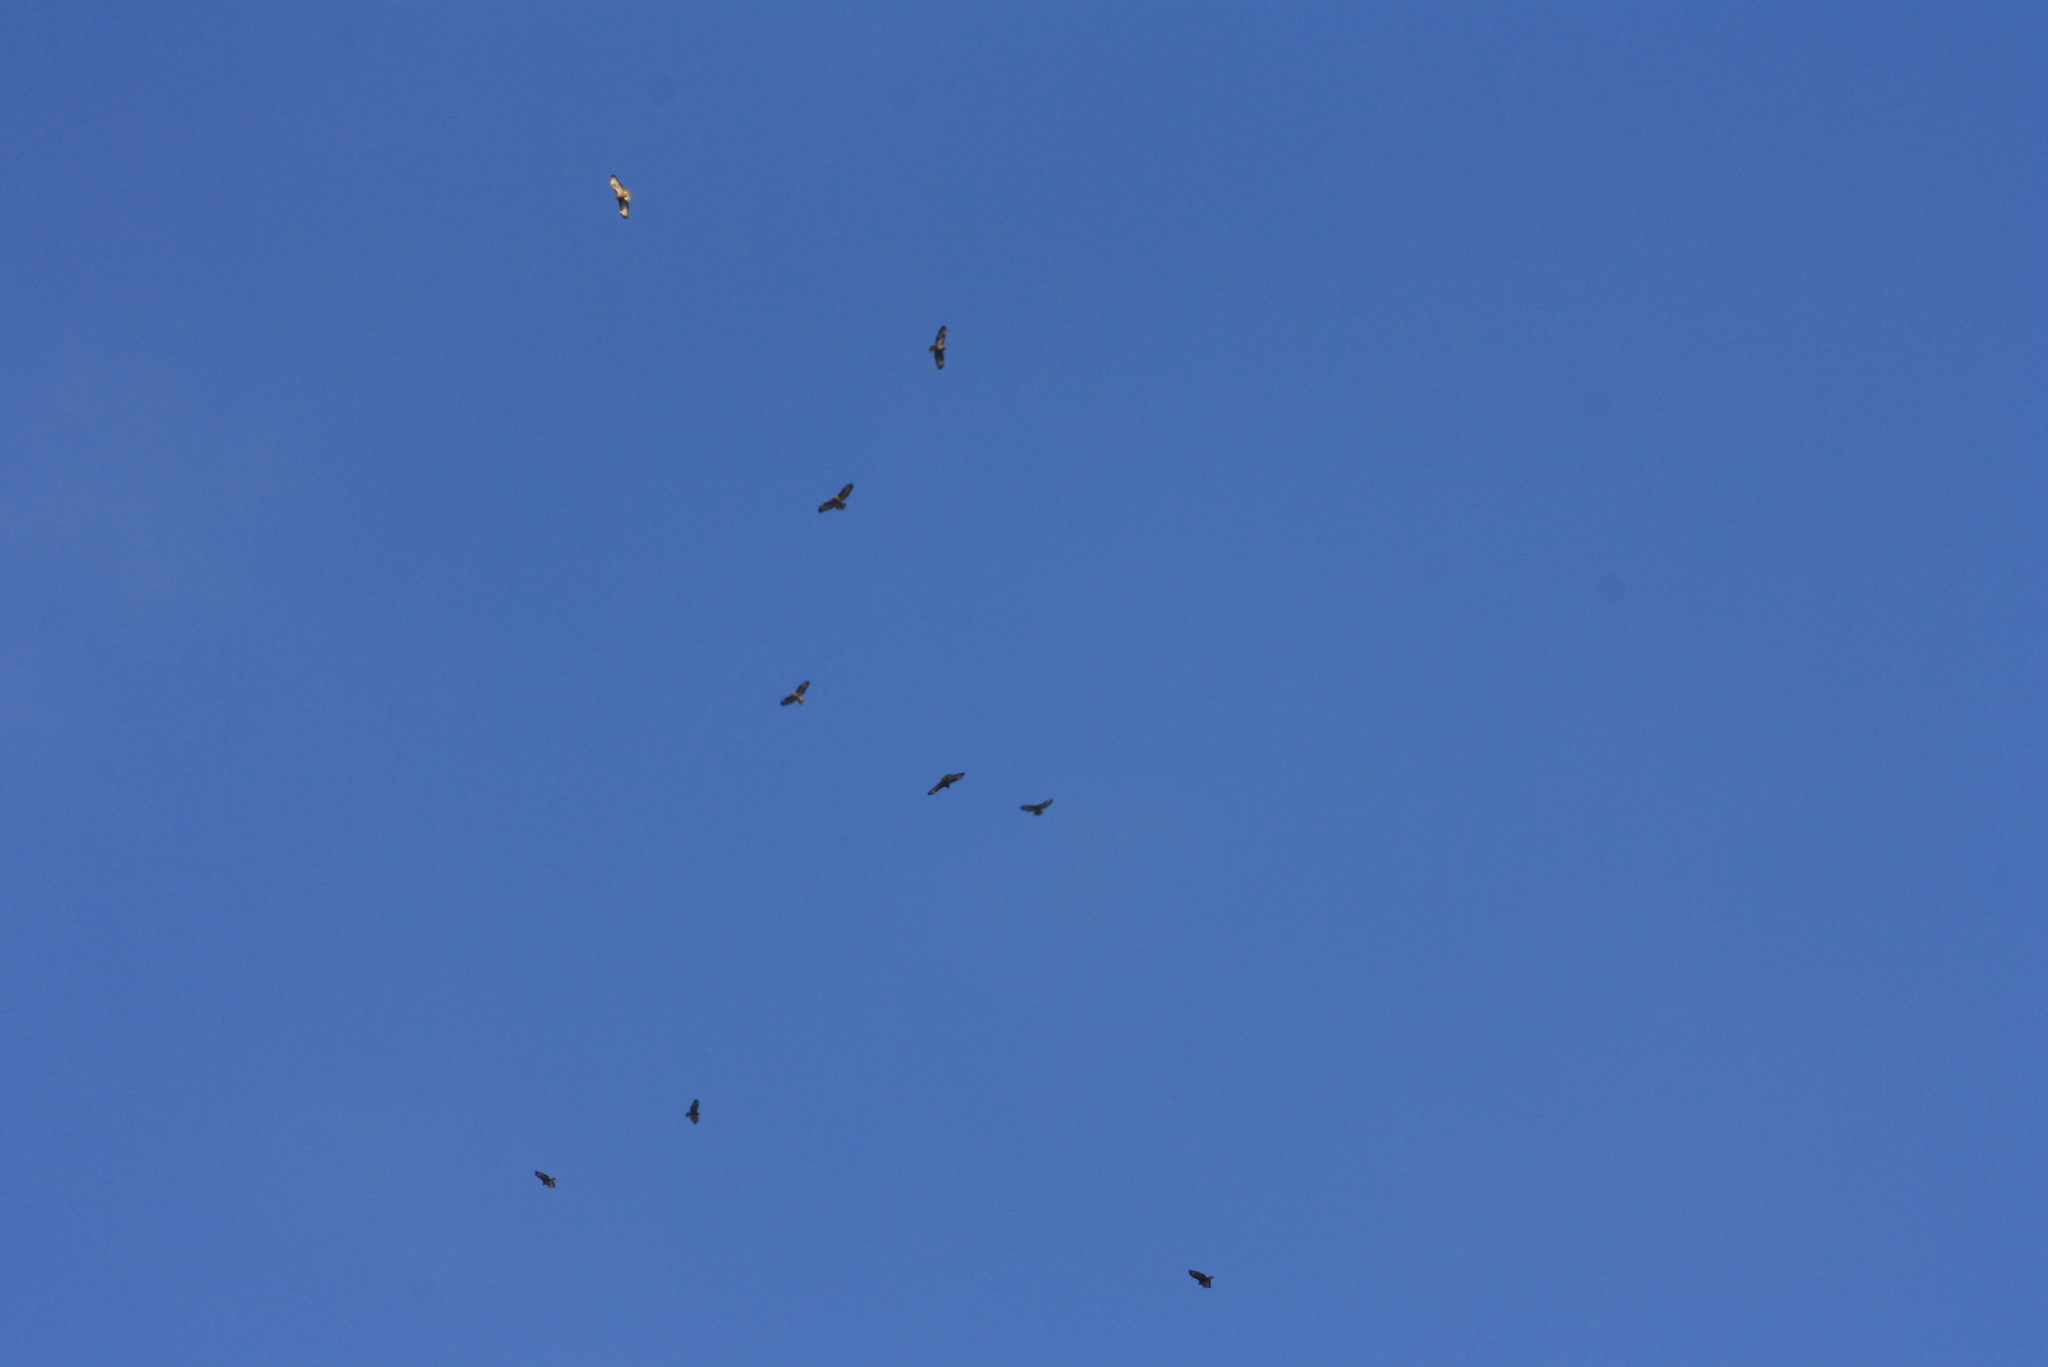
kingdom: Animalia
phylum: Chordata
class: Aves
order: Accipitriformes
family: Accipitridae
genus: Buteo
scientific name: Buteo buteo
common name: Common buzzard
